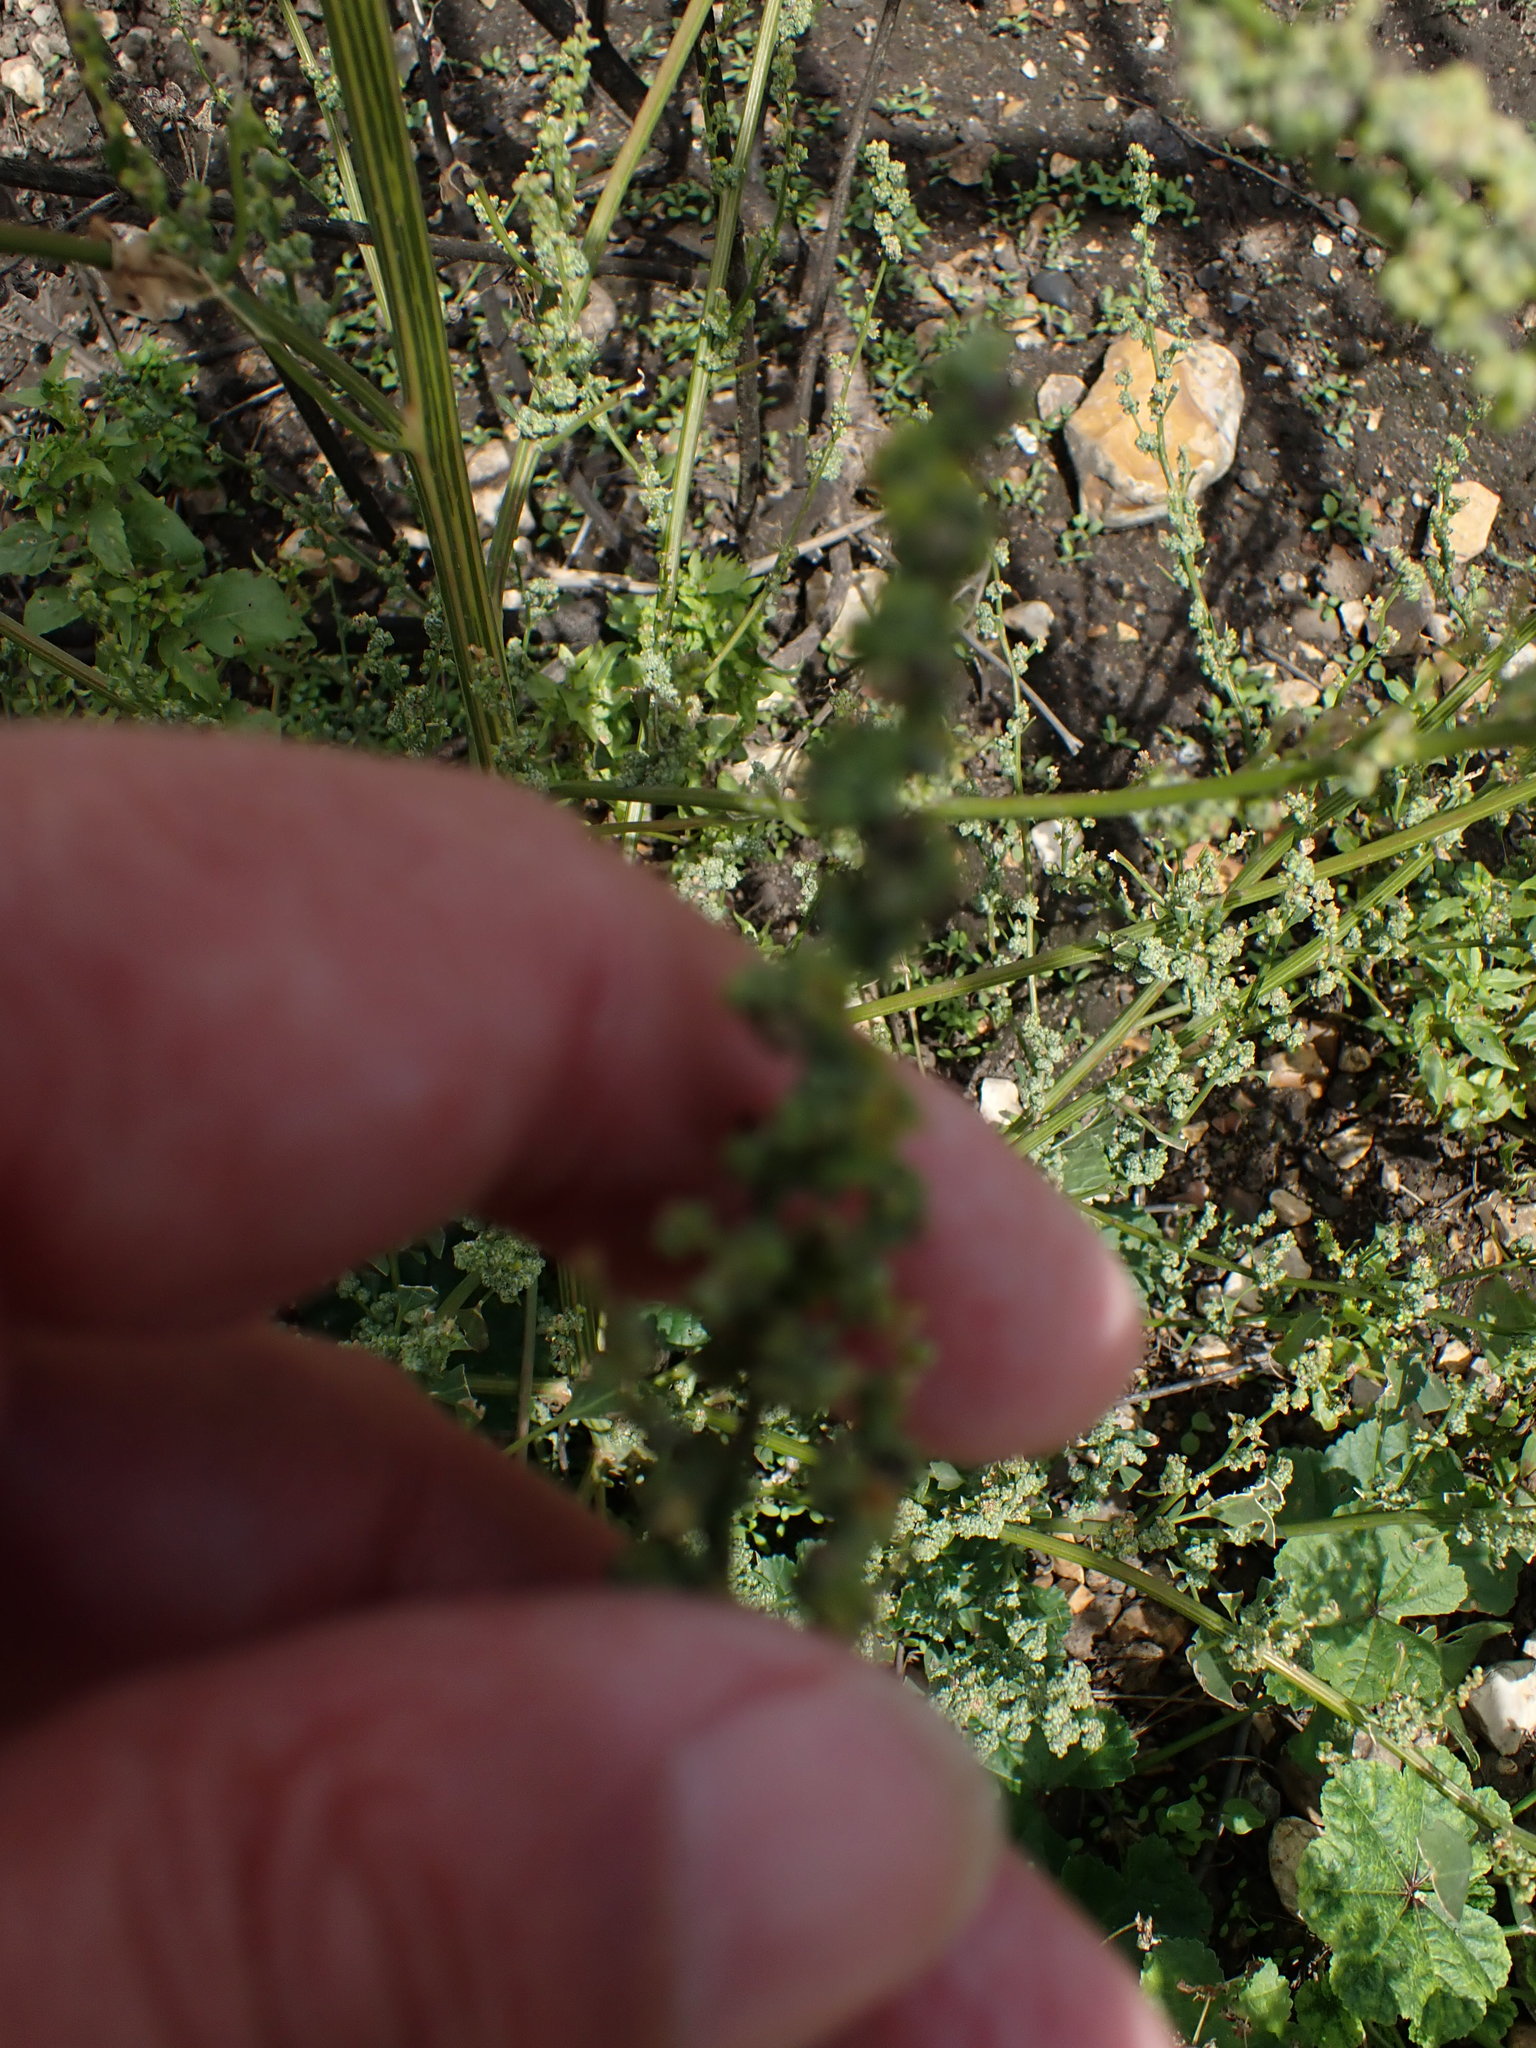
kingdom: Plantae
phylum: Tracheophyta
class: Magnoliopsida
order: Caryophyllales
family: Amaranthaceae
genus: Chenopodium
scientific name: Chenopodium album
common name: Fat-hen
